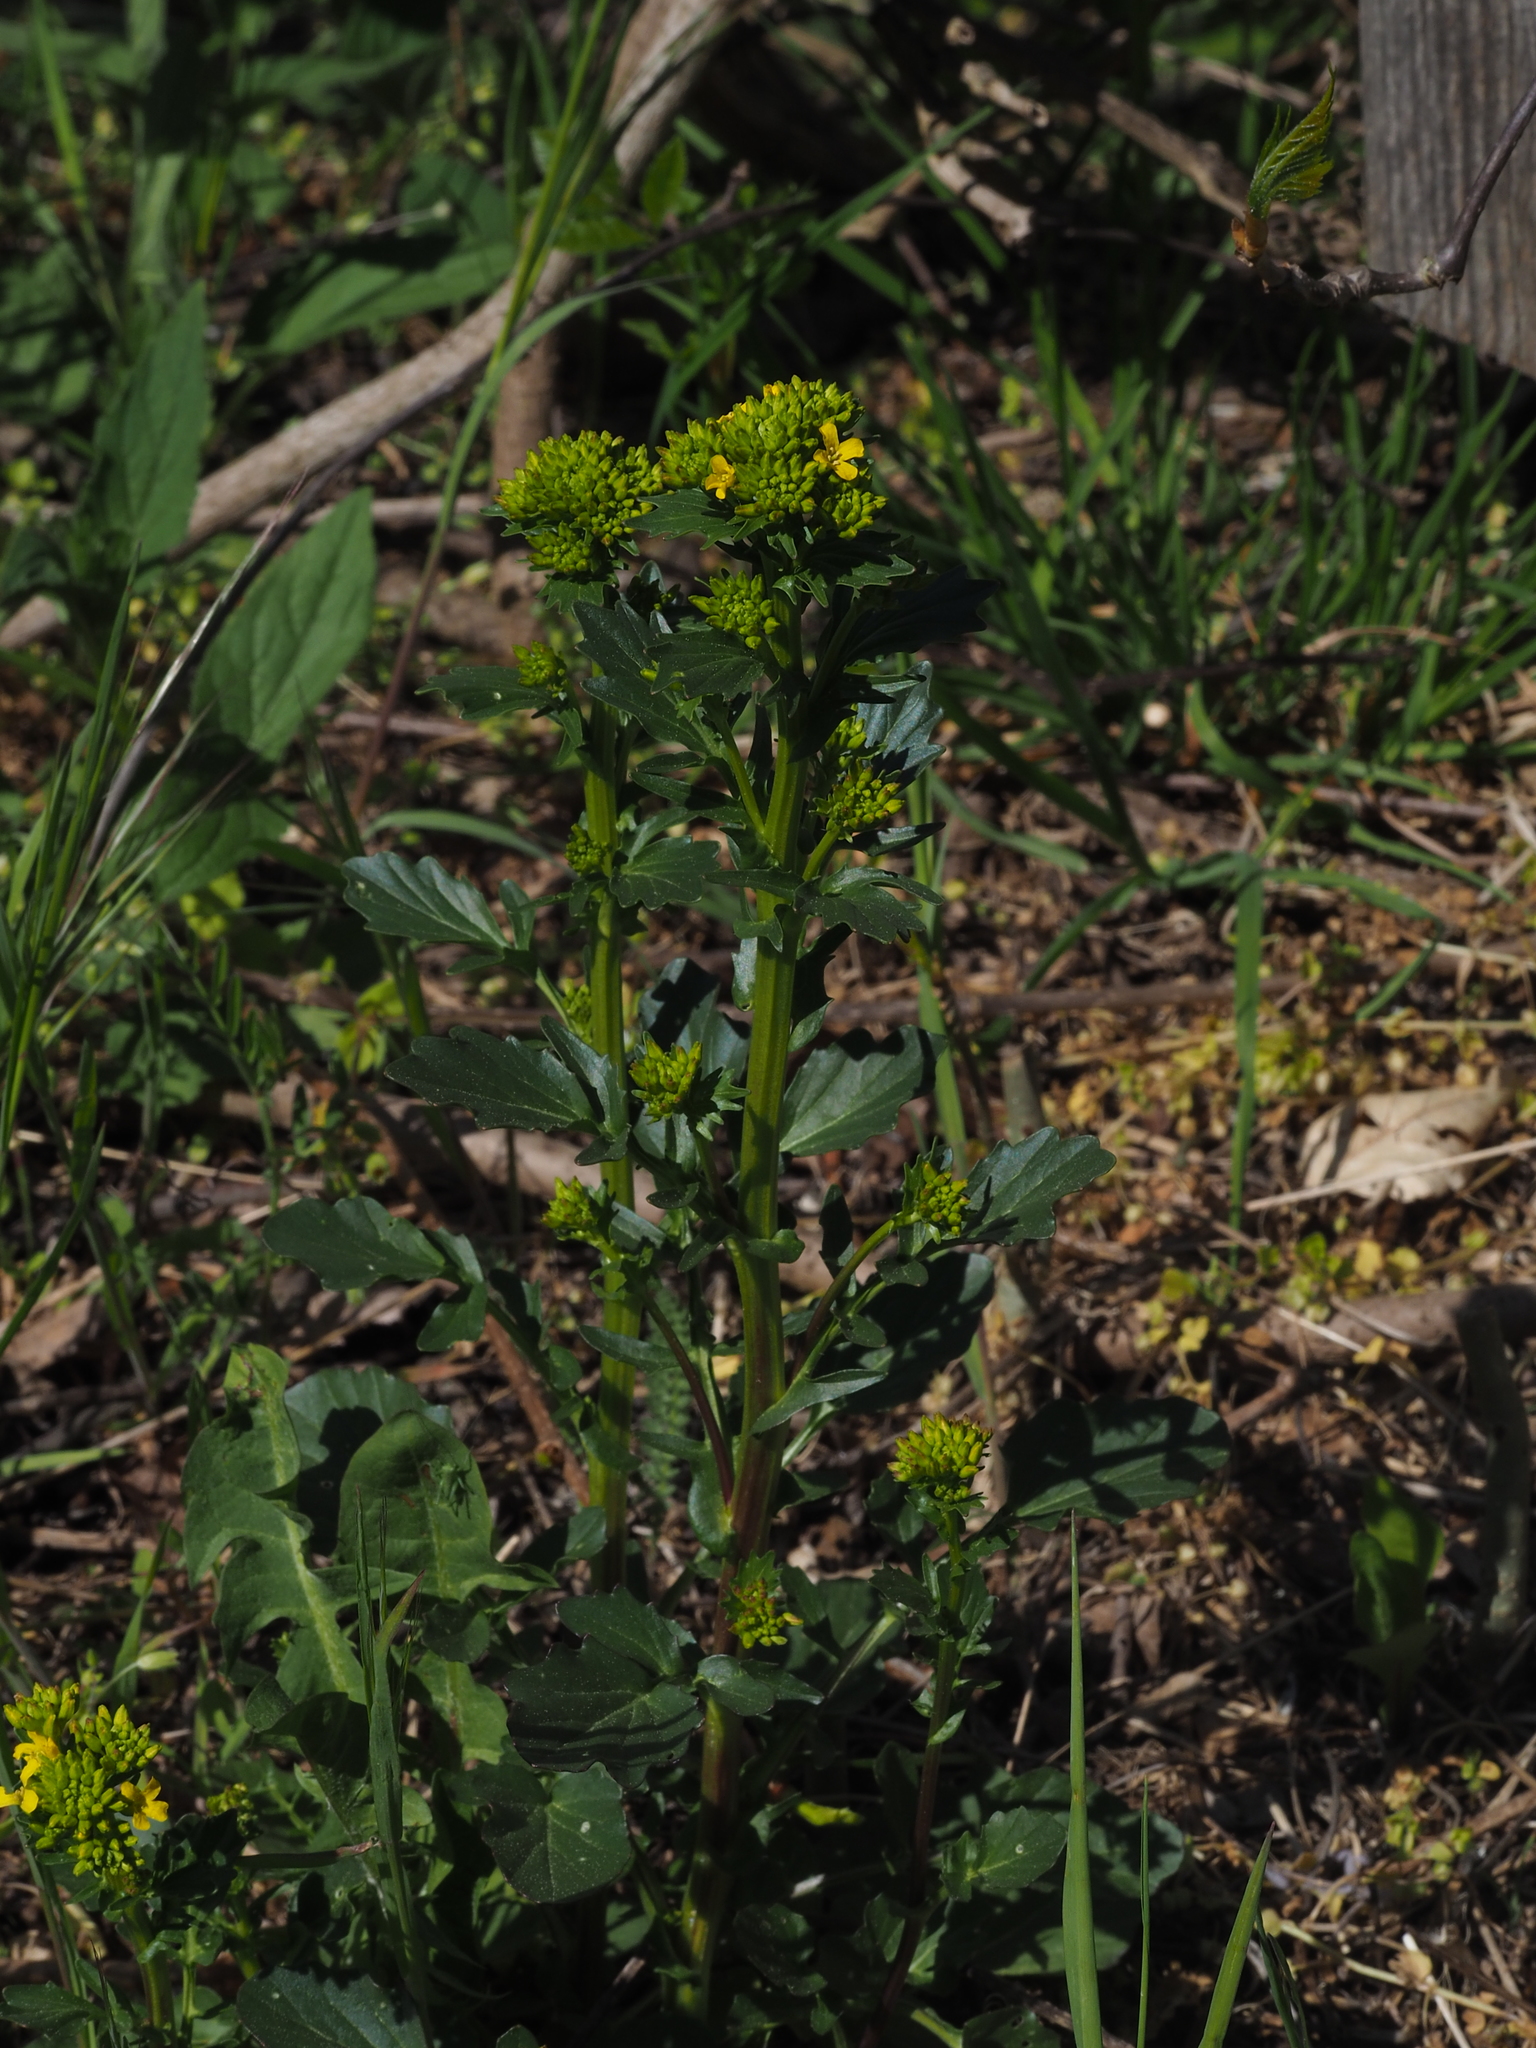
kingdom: Plantae
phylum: Tracheophyta
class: Magnoliopsida
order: Brassicales
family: Brassicaceae
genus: Barbarea
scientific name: Barbarea vulgaris
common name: Cressy-greens
